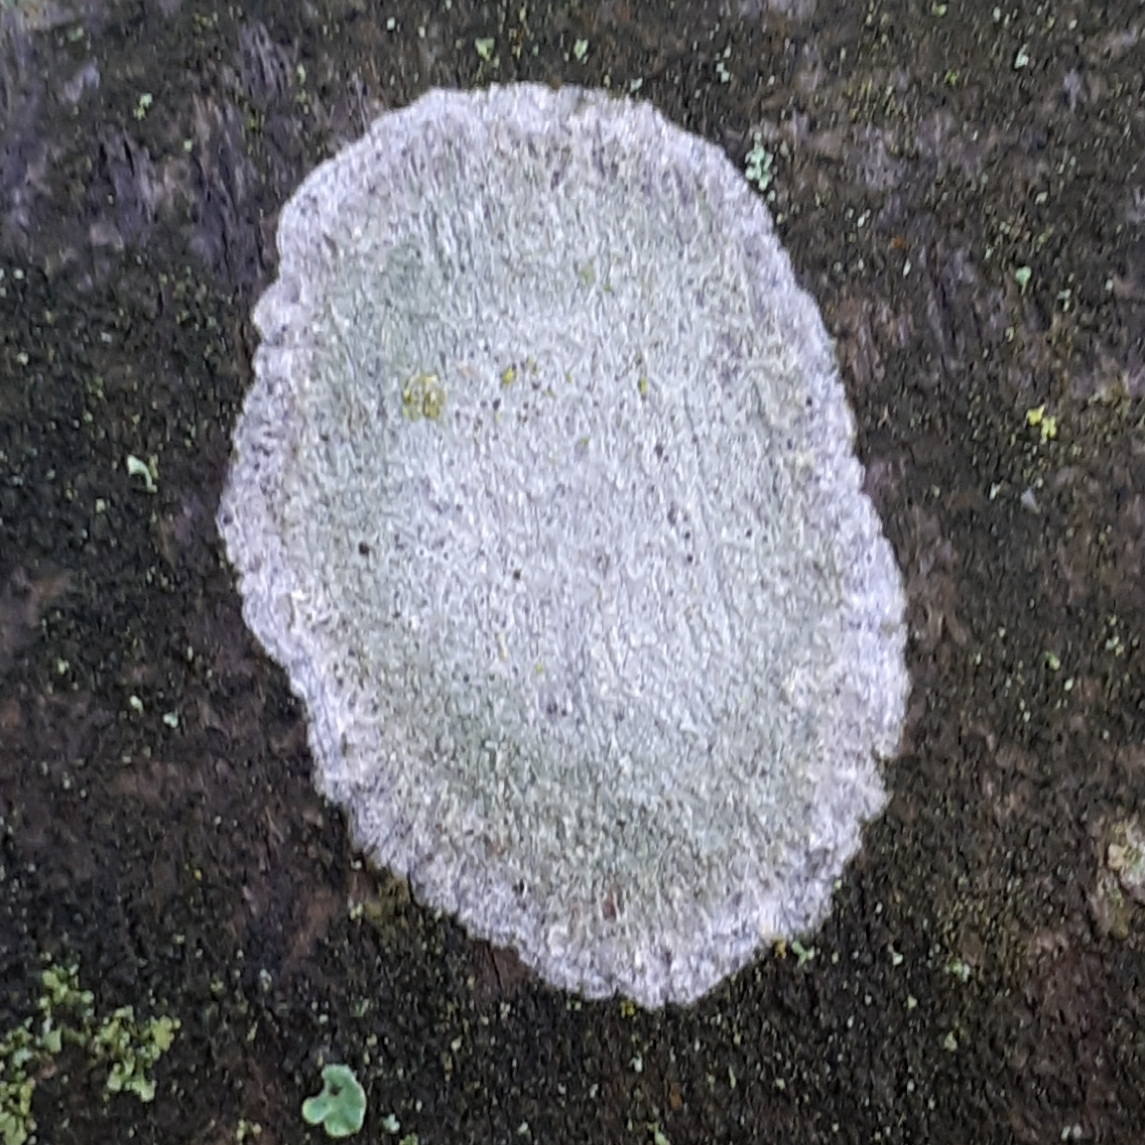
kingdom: Fungi
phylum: Ascomycota
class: Lecanoromycetes
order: Ostropales
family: Phlyctidaceae
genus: Phlyctis
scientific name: Phlyctis argena
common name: Whitewash lichen
